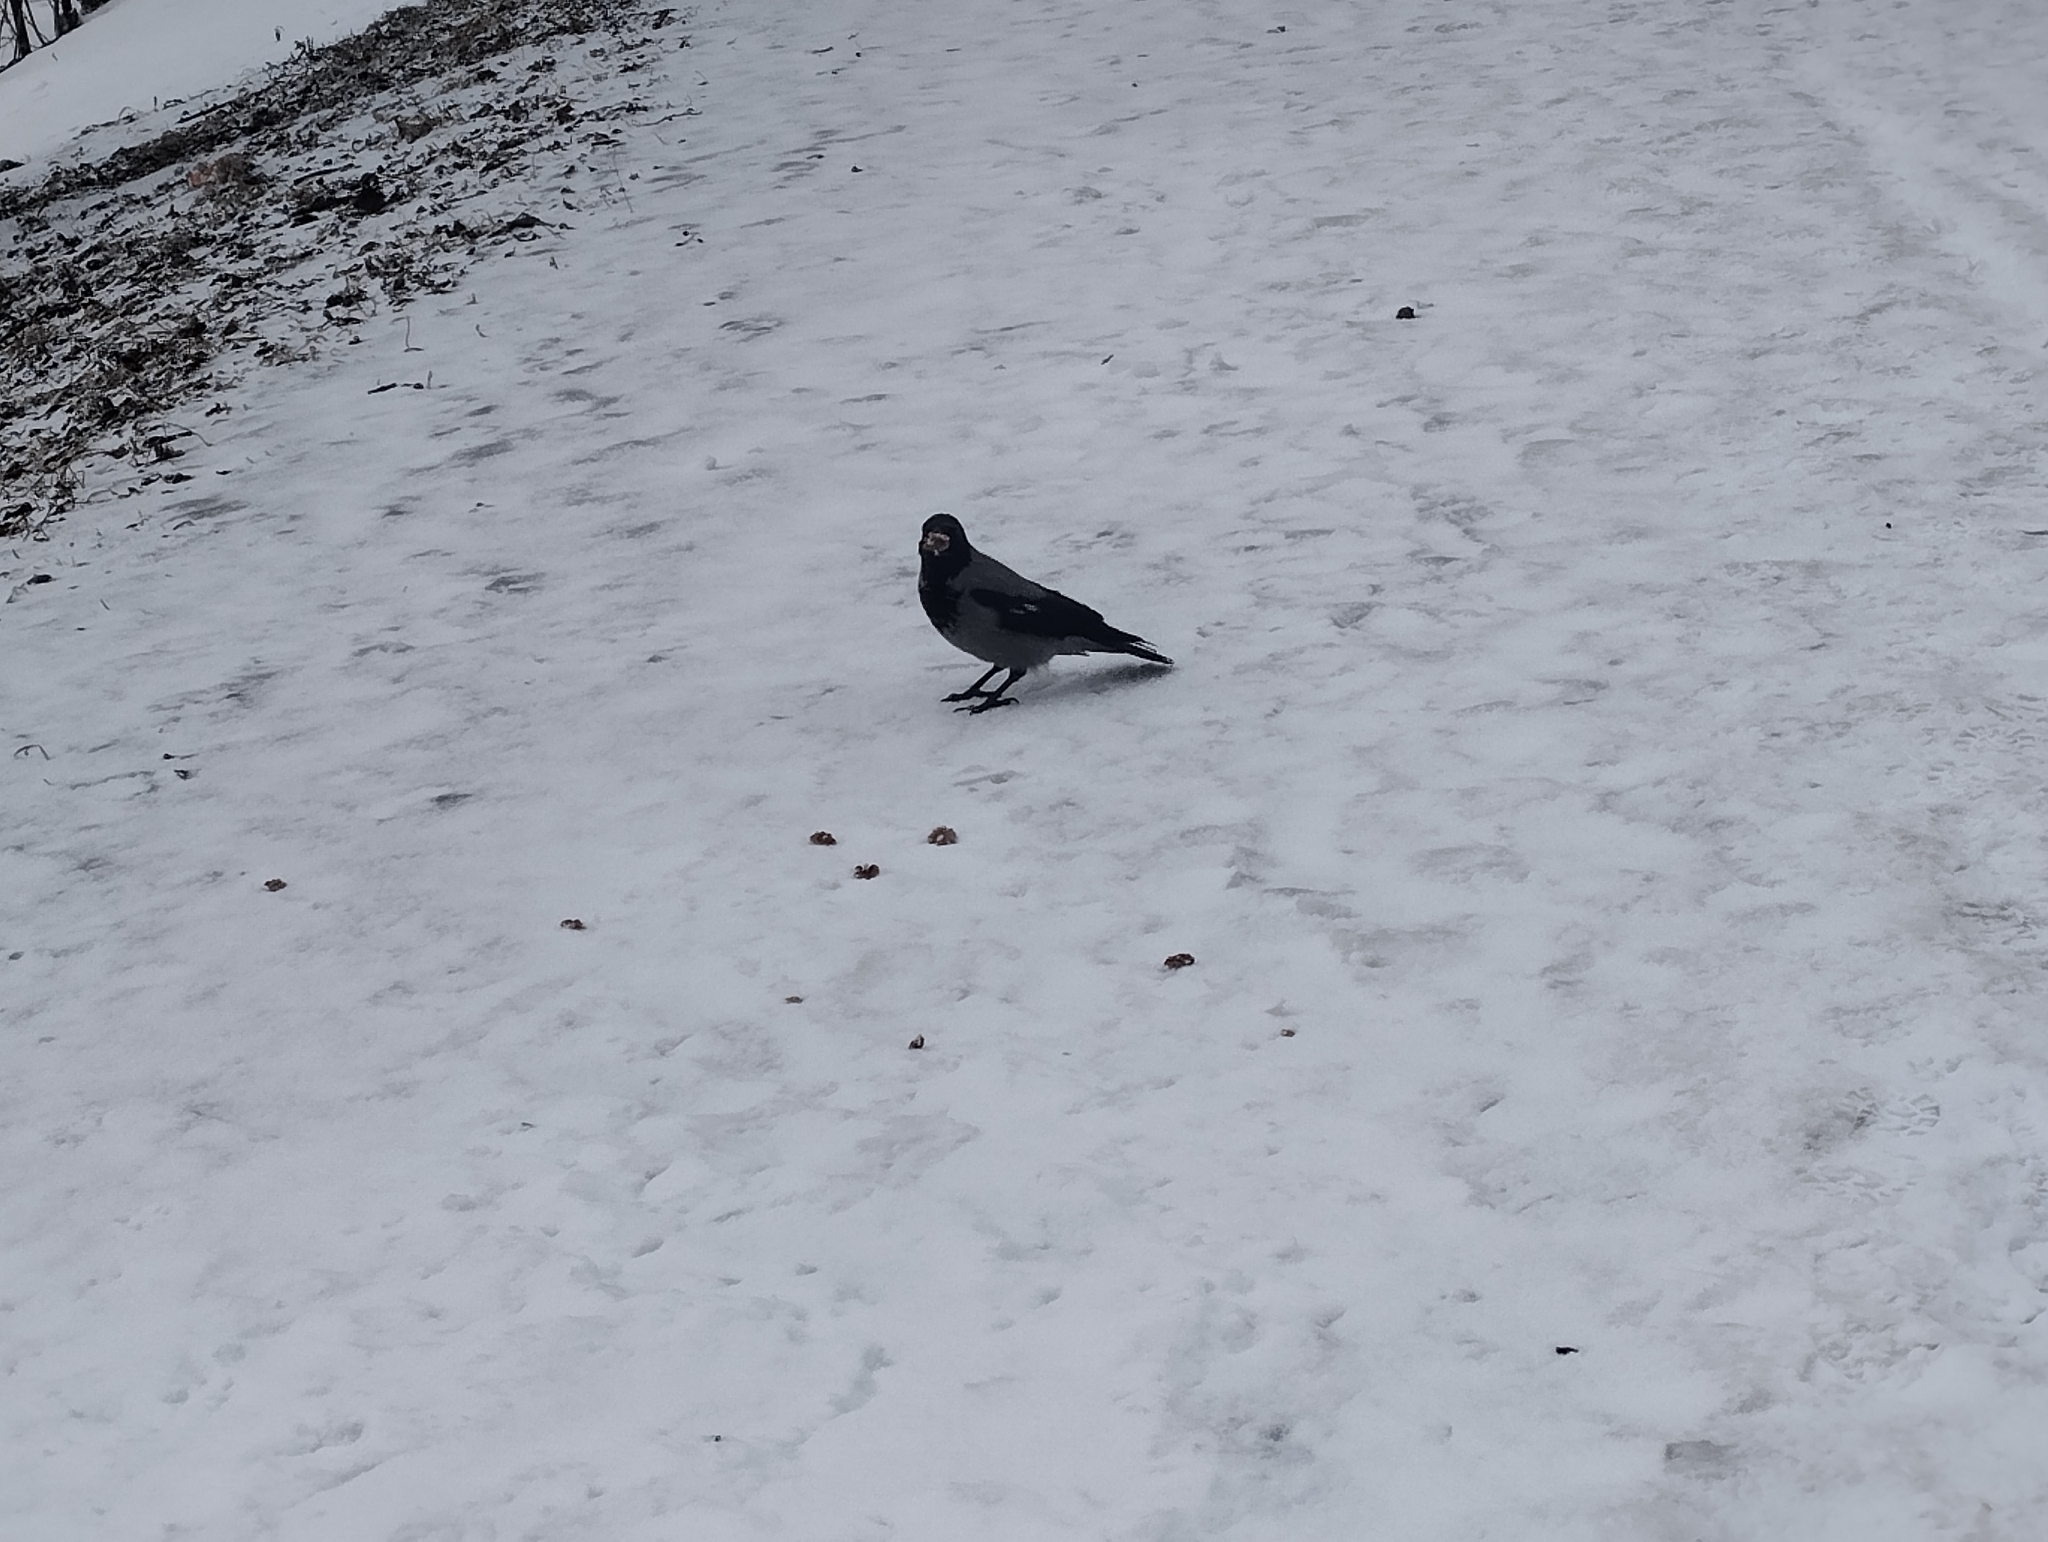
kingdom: Animalia
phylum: Chordata
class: Aves
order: Passeriformes
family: Corvidae
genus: Corvus
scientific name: Corvus cornix
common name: Hooded crow
